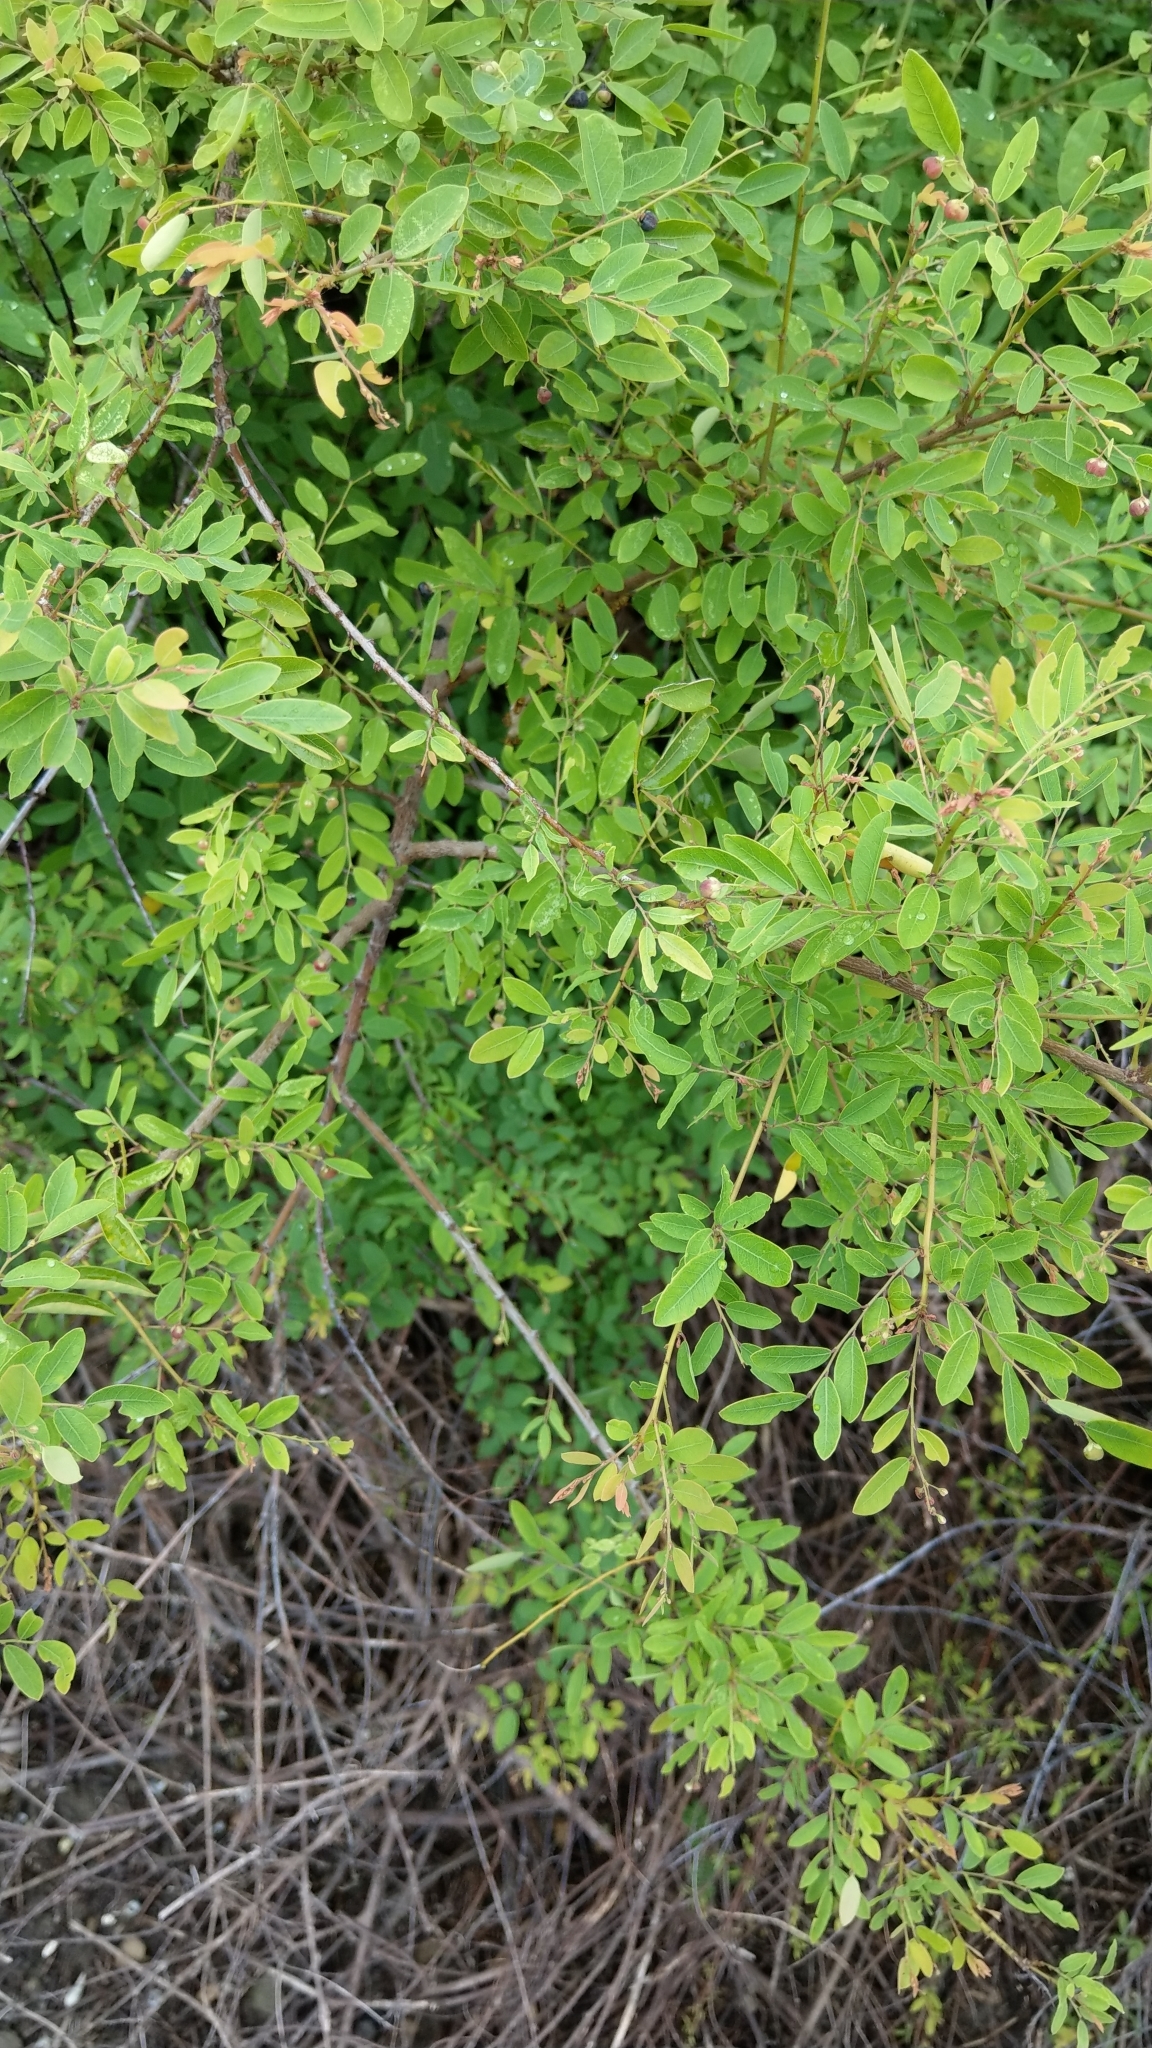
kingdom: Plantae
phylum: Tracheophyta
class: Magnoliopsida
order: Malpighiales
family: Phyllanthaceae
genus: Phyllanthus
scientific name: Phyllanthus reticulatus
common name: Potato bush
